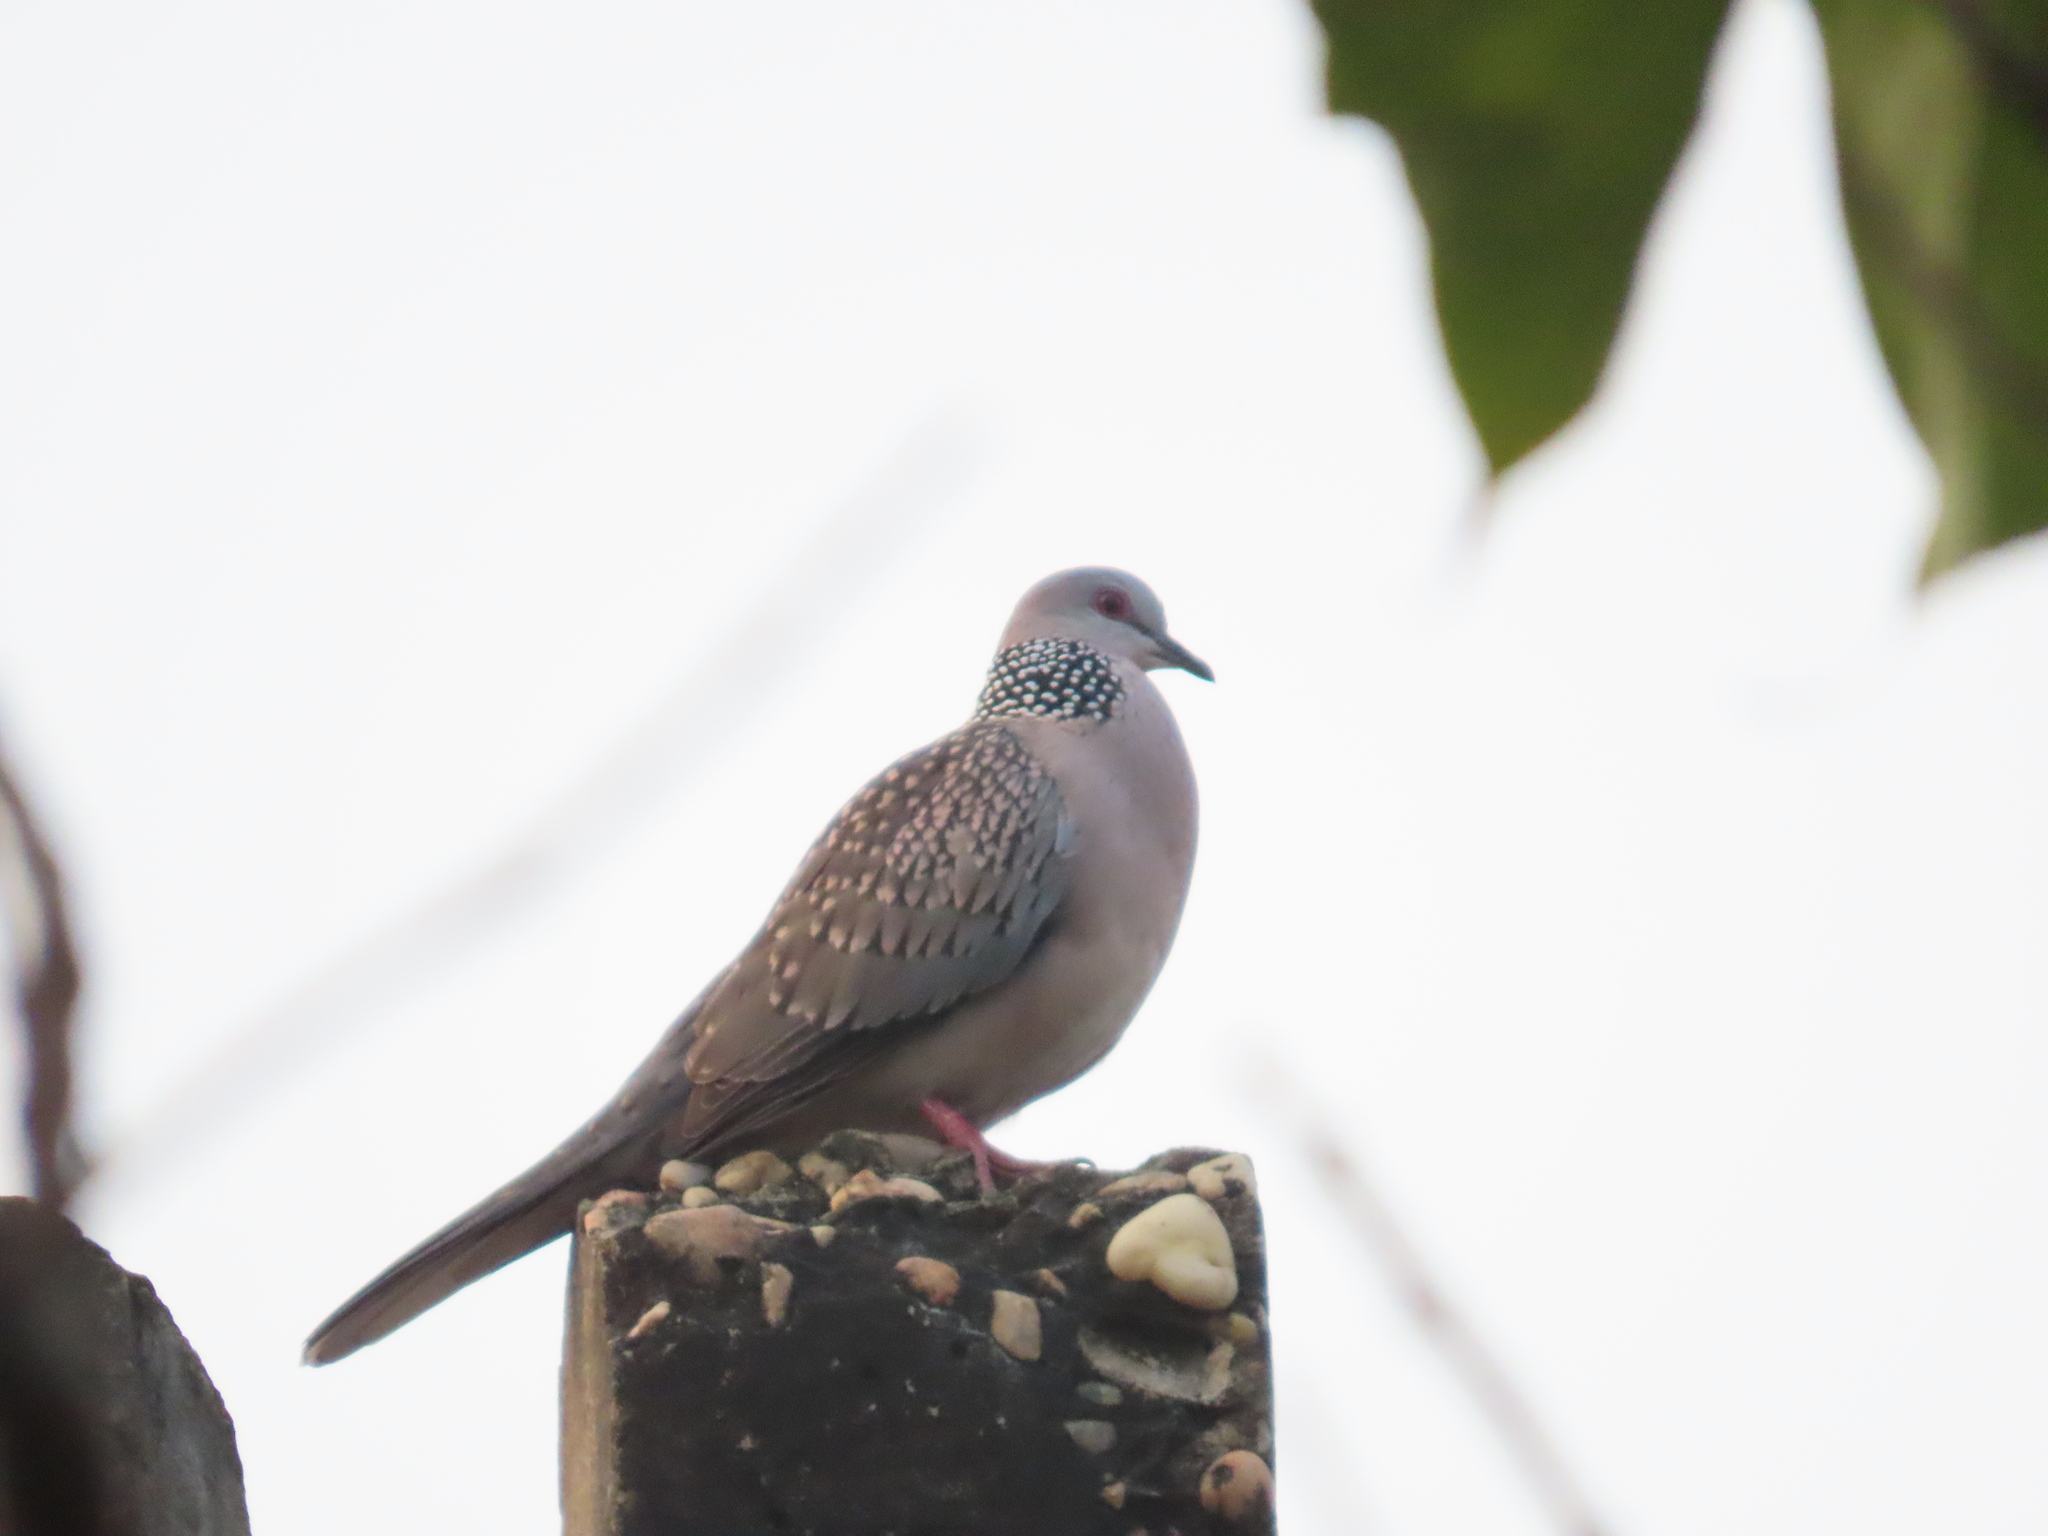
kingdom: Animalia
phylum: Chordata
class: Aves
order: Columbiformes
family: Columbidae
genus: Spilopelia
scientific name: Spilopelia chinensis
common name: Spotted dove
